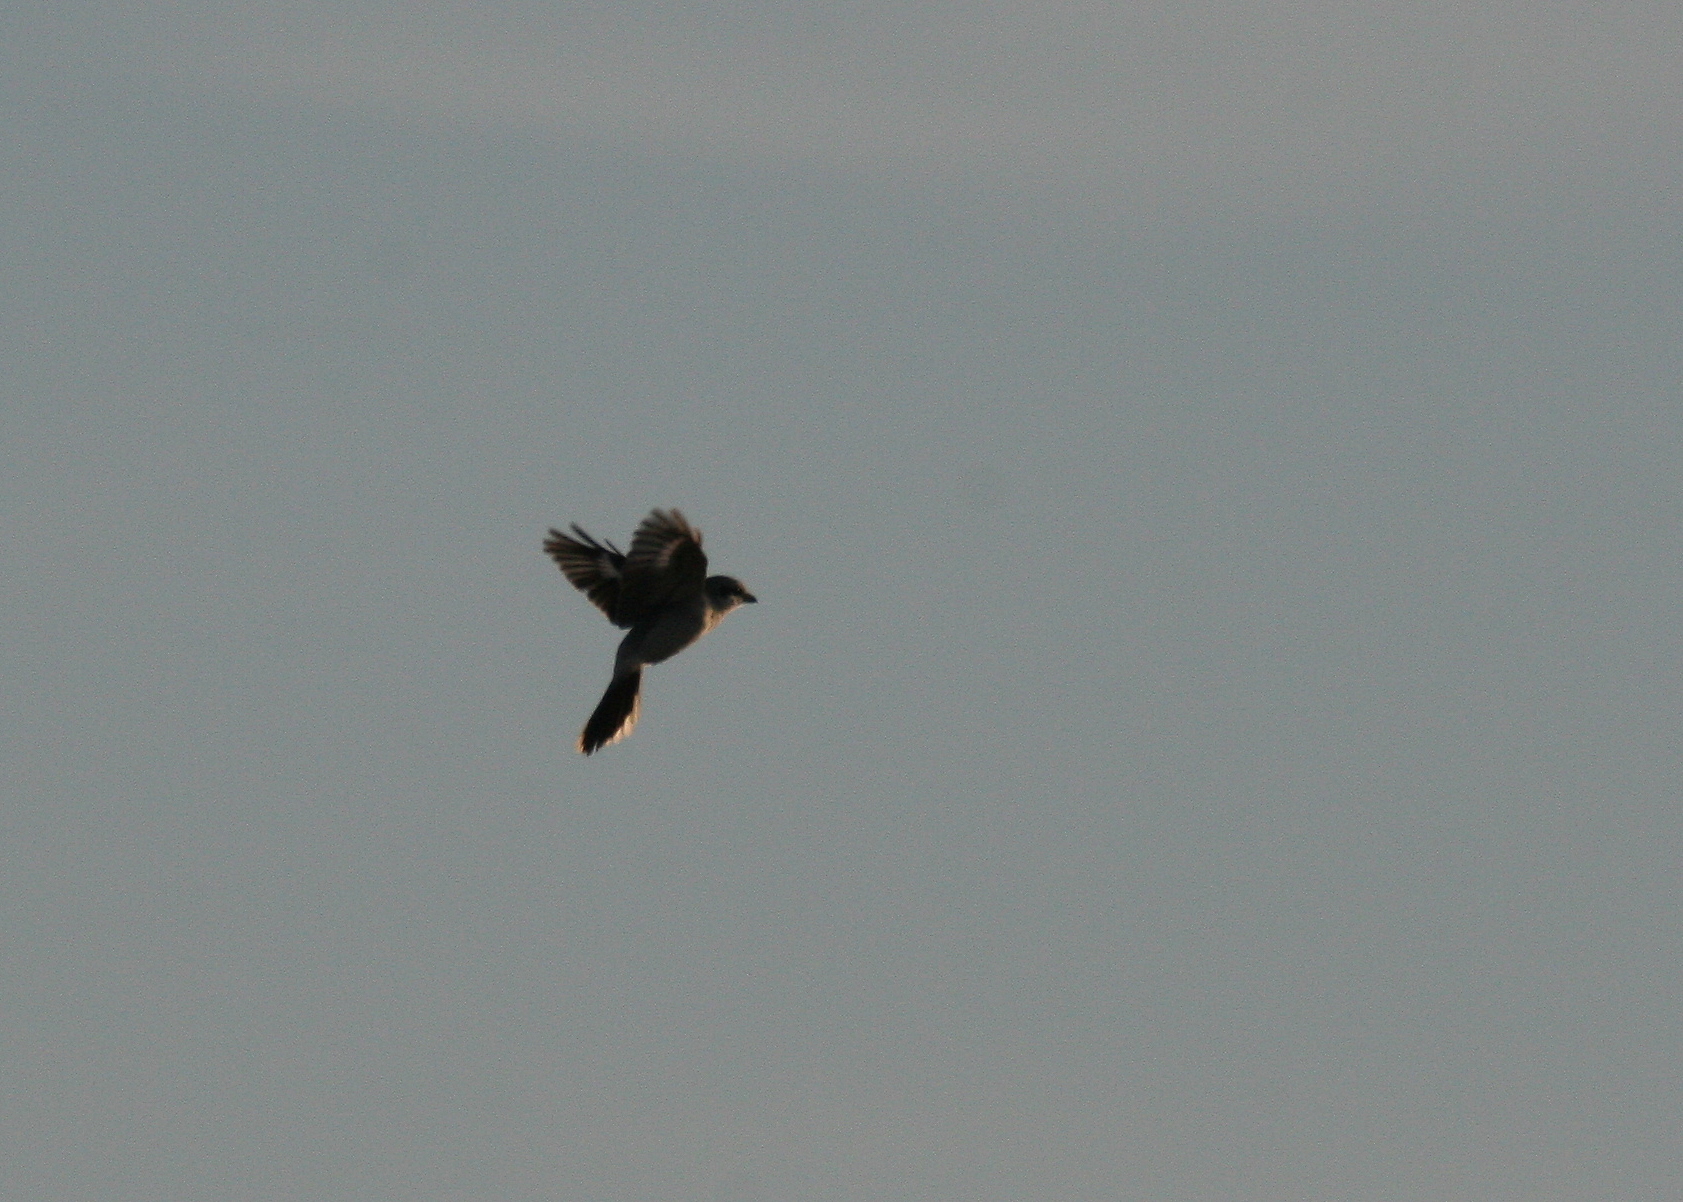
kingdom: Animalia
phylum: Chordata
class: Aves
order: Passeriformes
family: Laniidae
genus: Lanius
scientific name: Lanius excubitor
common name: Great grey shrike
